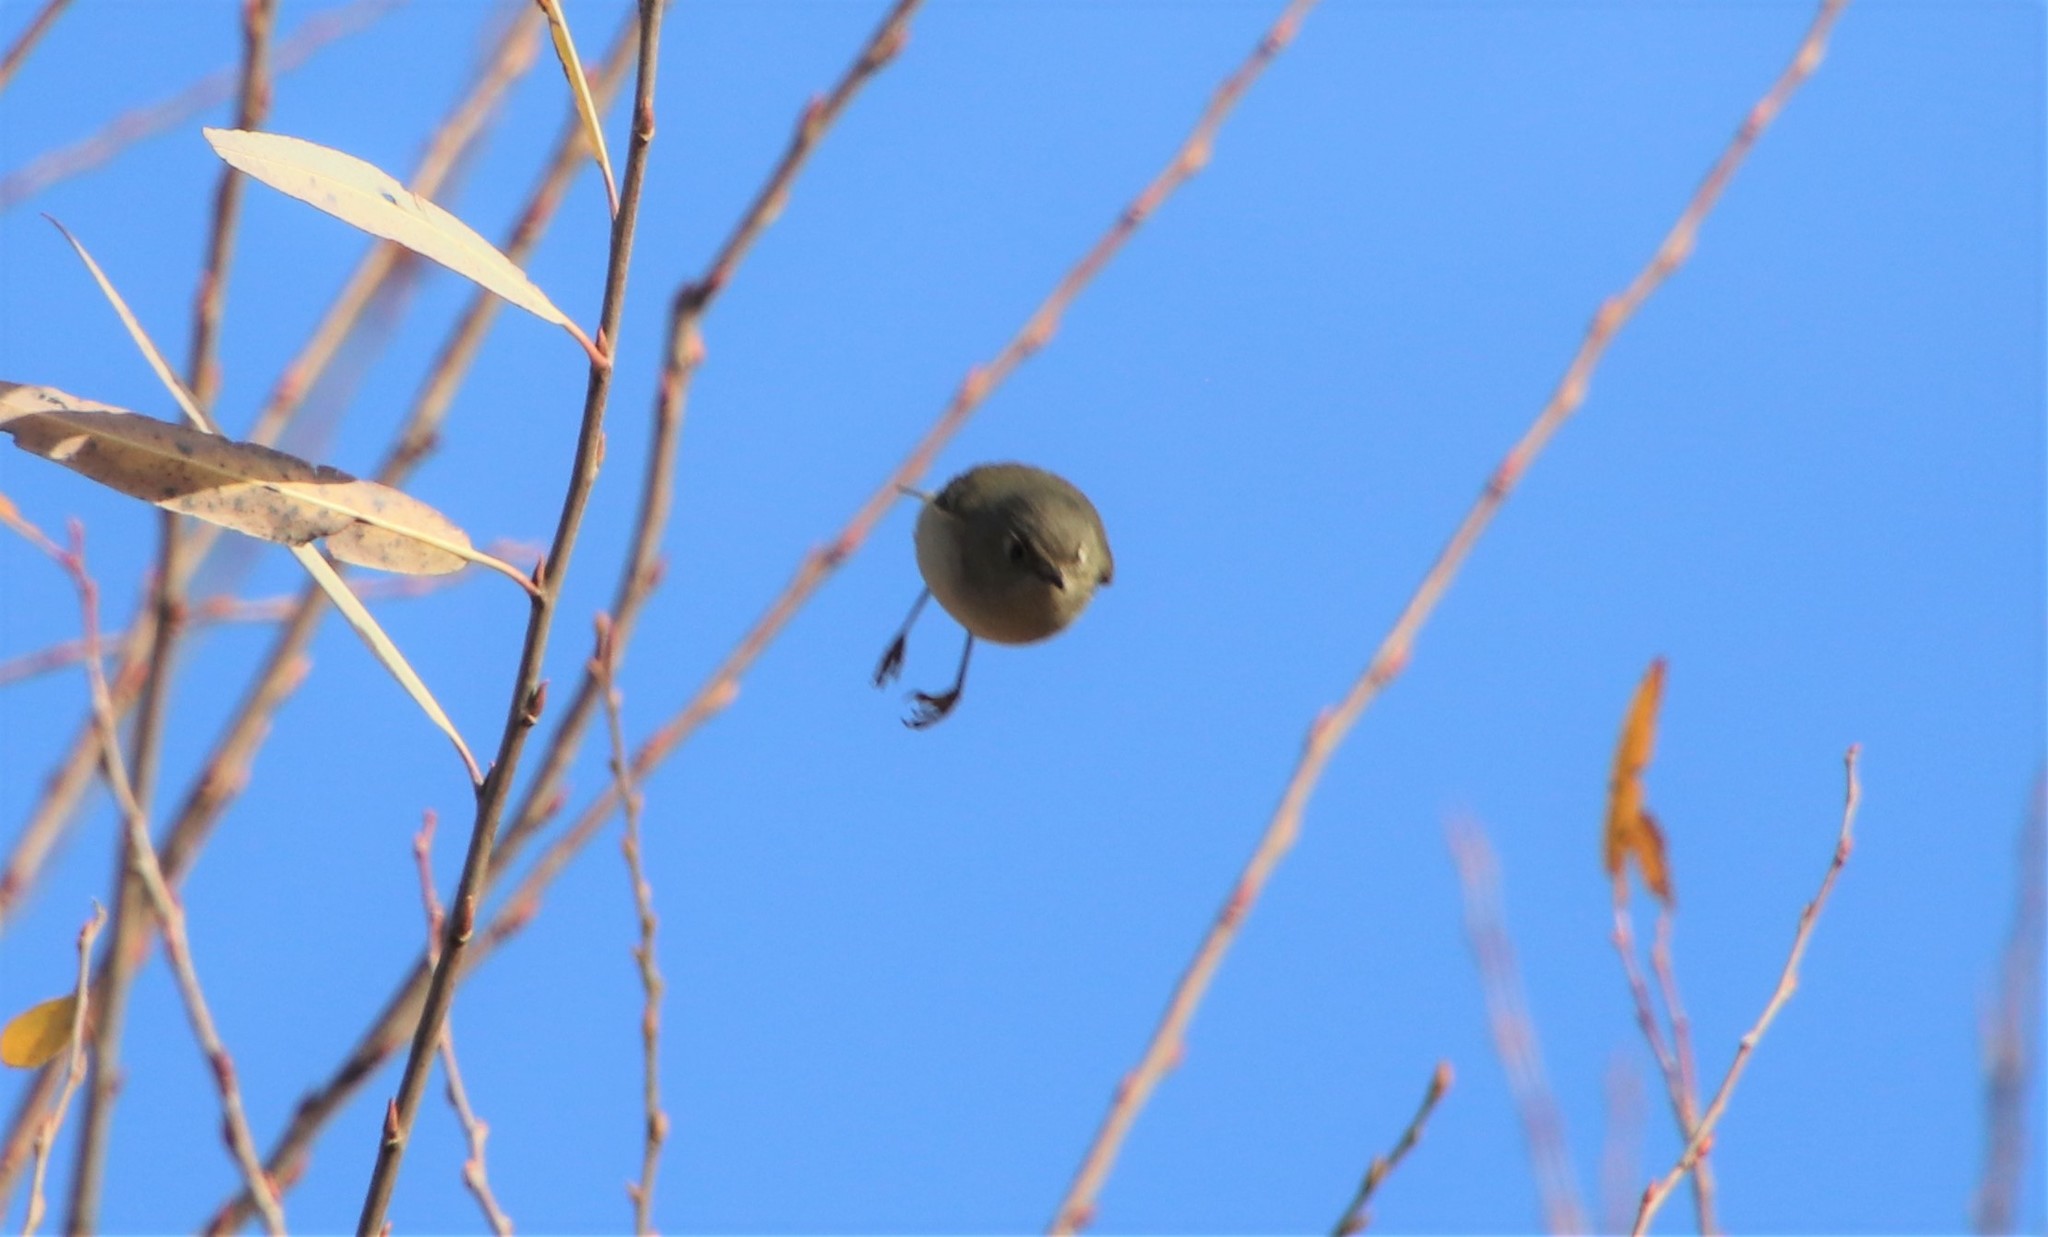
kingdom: Animalia
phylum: Chordata
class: Aves
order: Passeriformes
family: Regulidae
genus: Regulus
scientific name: Regulus calendula
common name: Ruby-crowned kinglet
